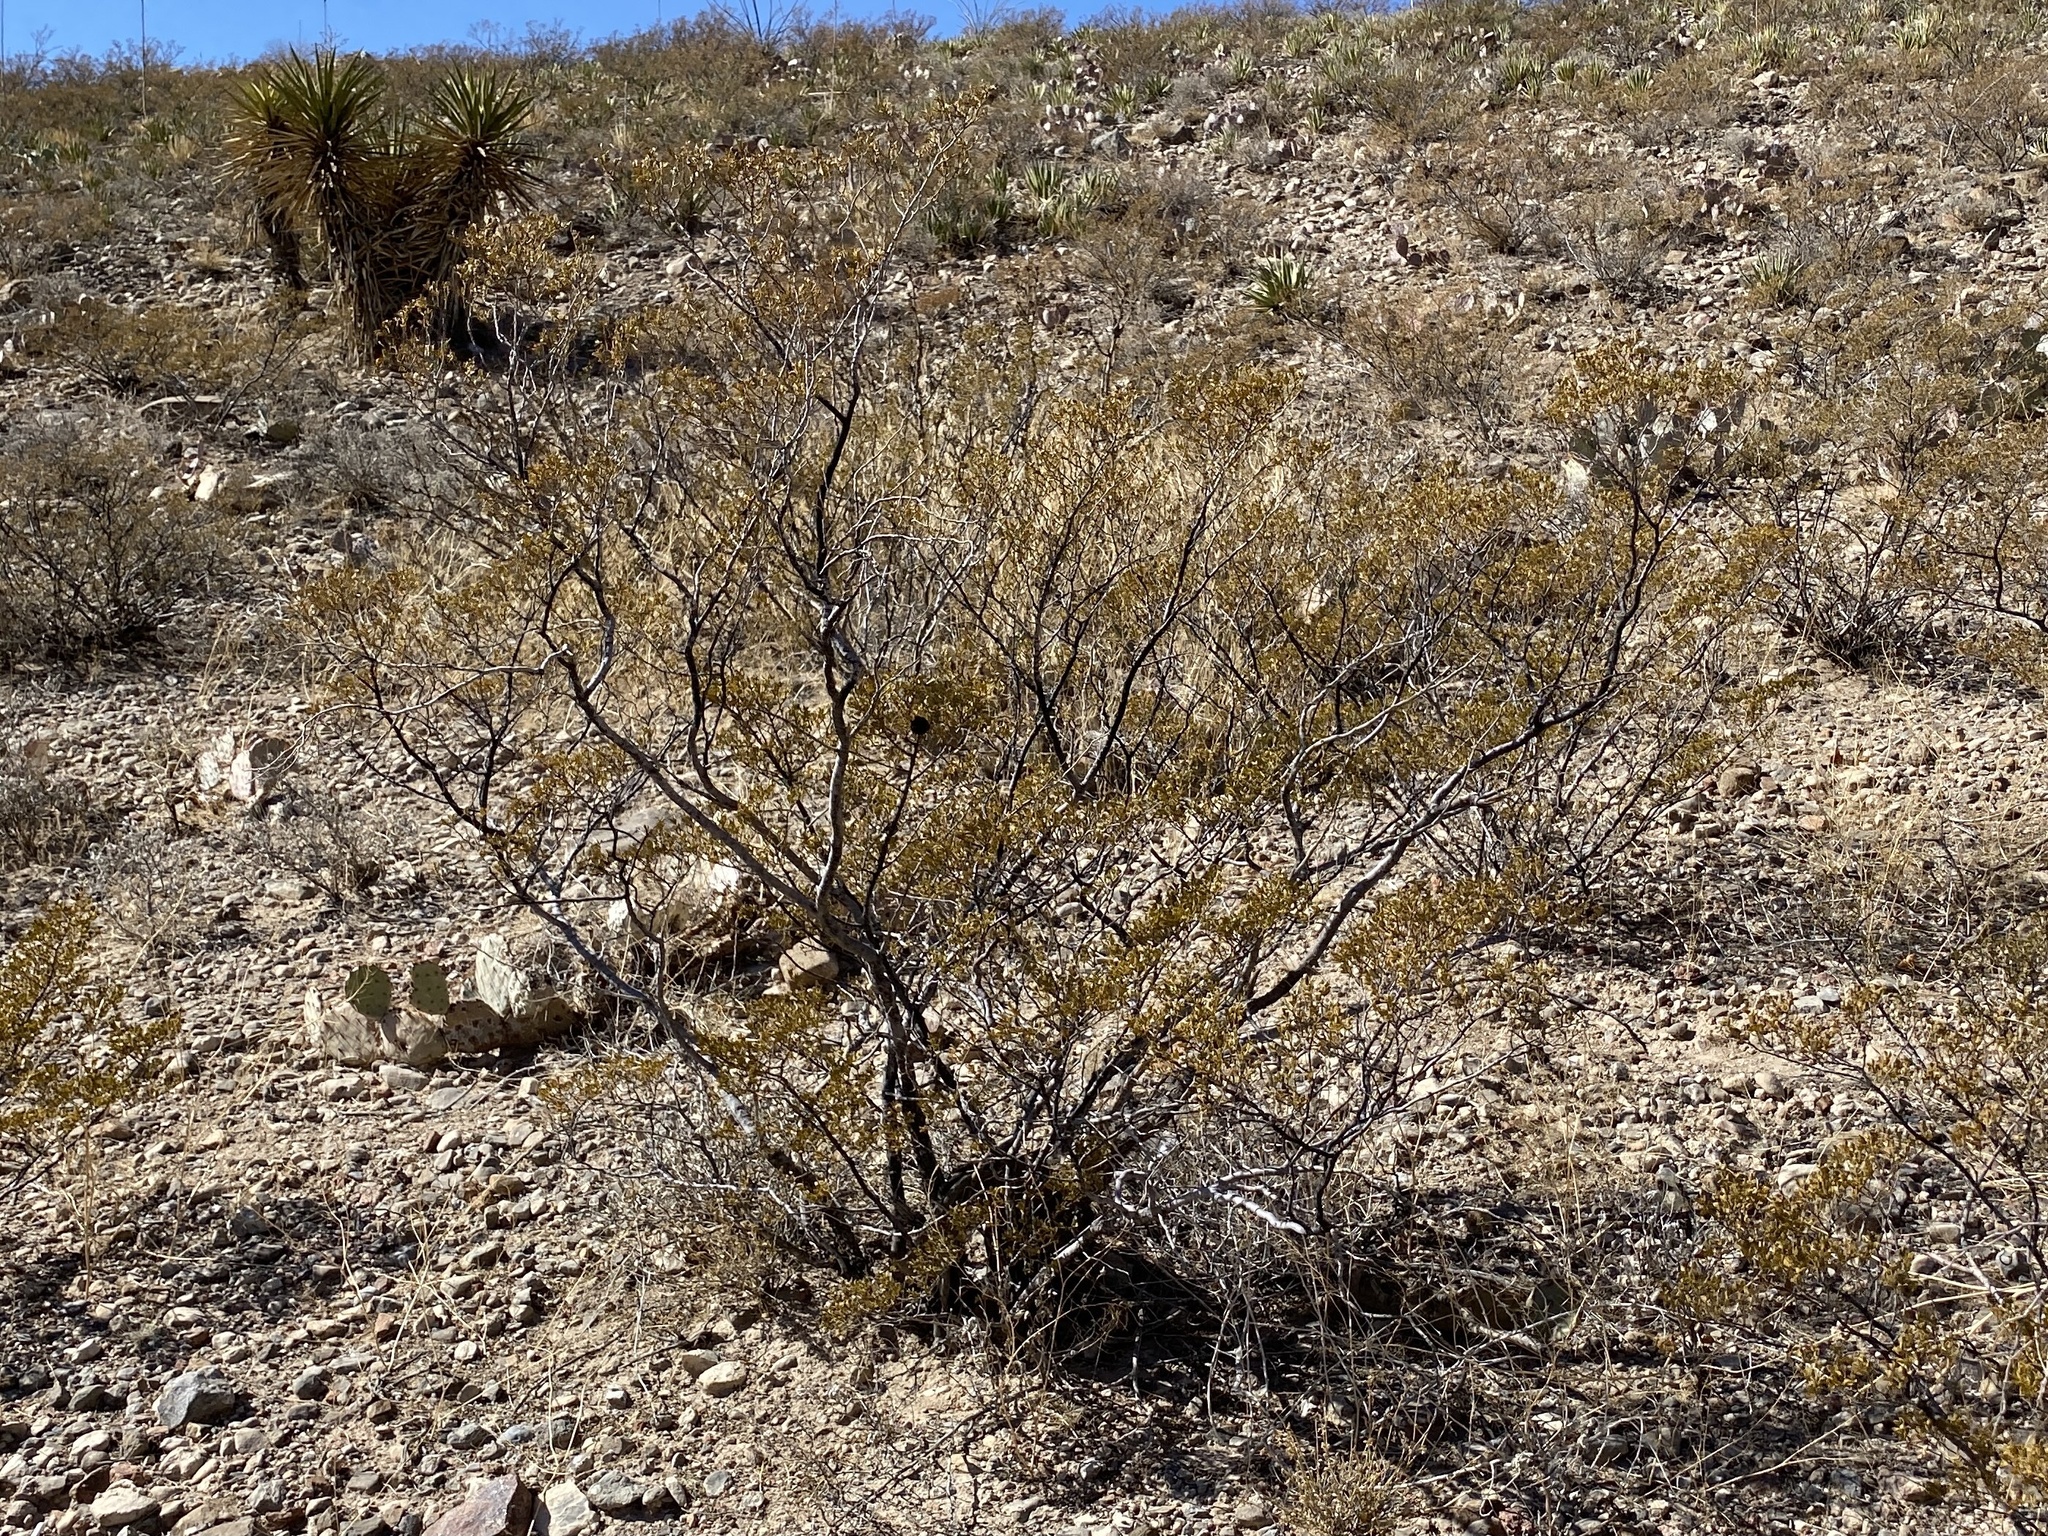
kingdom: Plantae
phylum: Tracheophyta
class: Magnoliopsida
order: Zygophyllales
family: Zygophyllaceae
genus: Larrea
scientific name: Larrea tridentata
